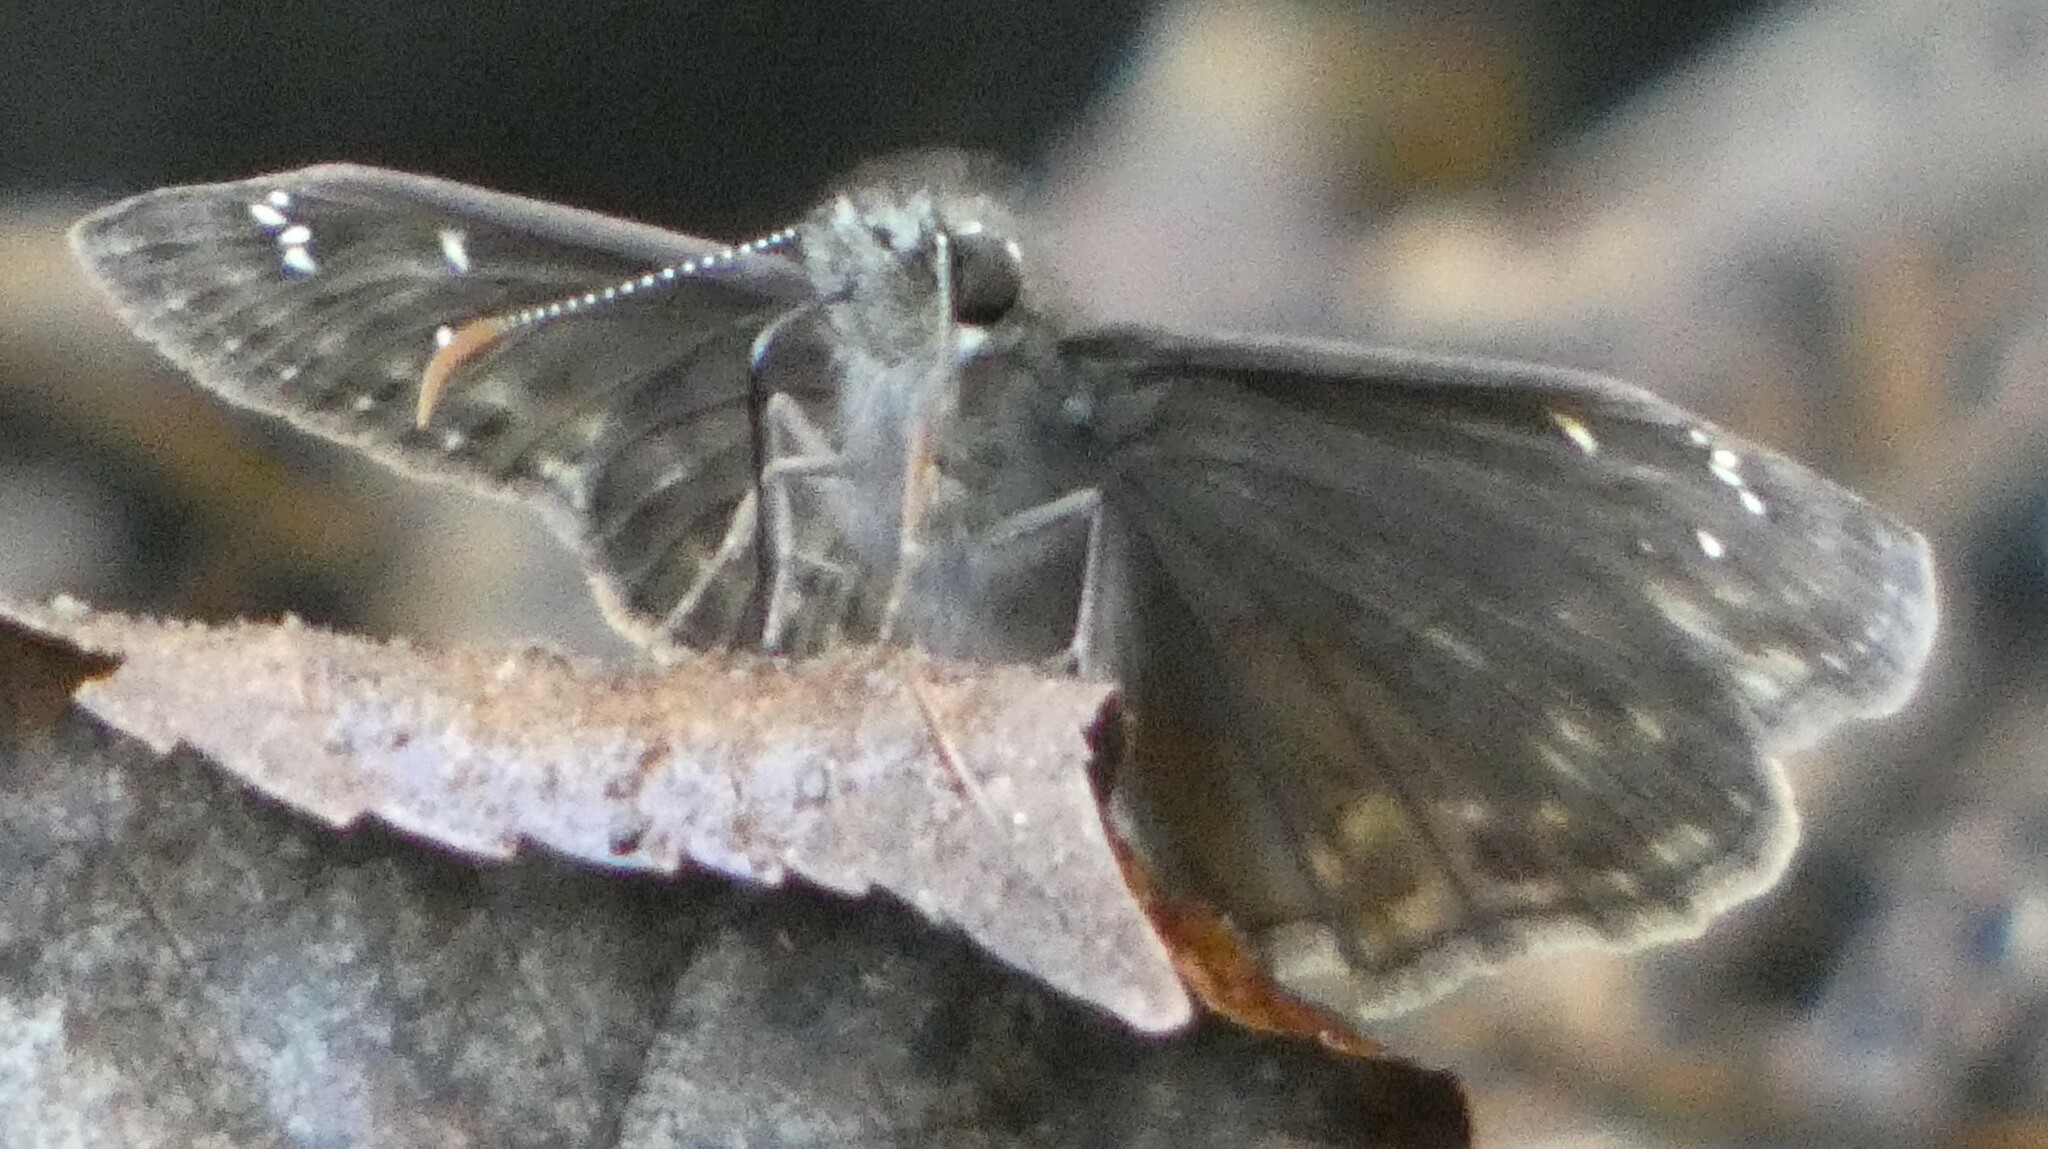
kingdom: Animalia
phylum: Arthropoda
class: Insecta
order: Lepidoptera
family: Hesperiidae
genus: Erynnis
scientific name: Erynnis horatius
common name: Horace's duskywing
